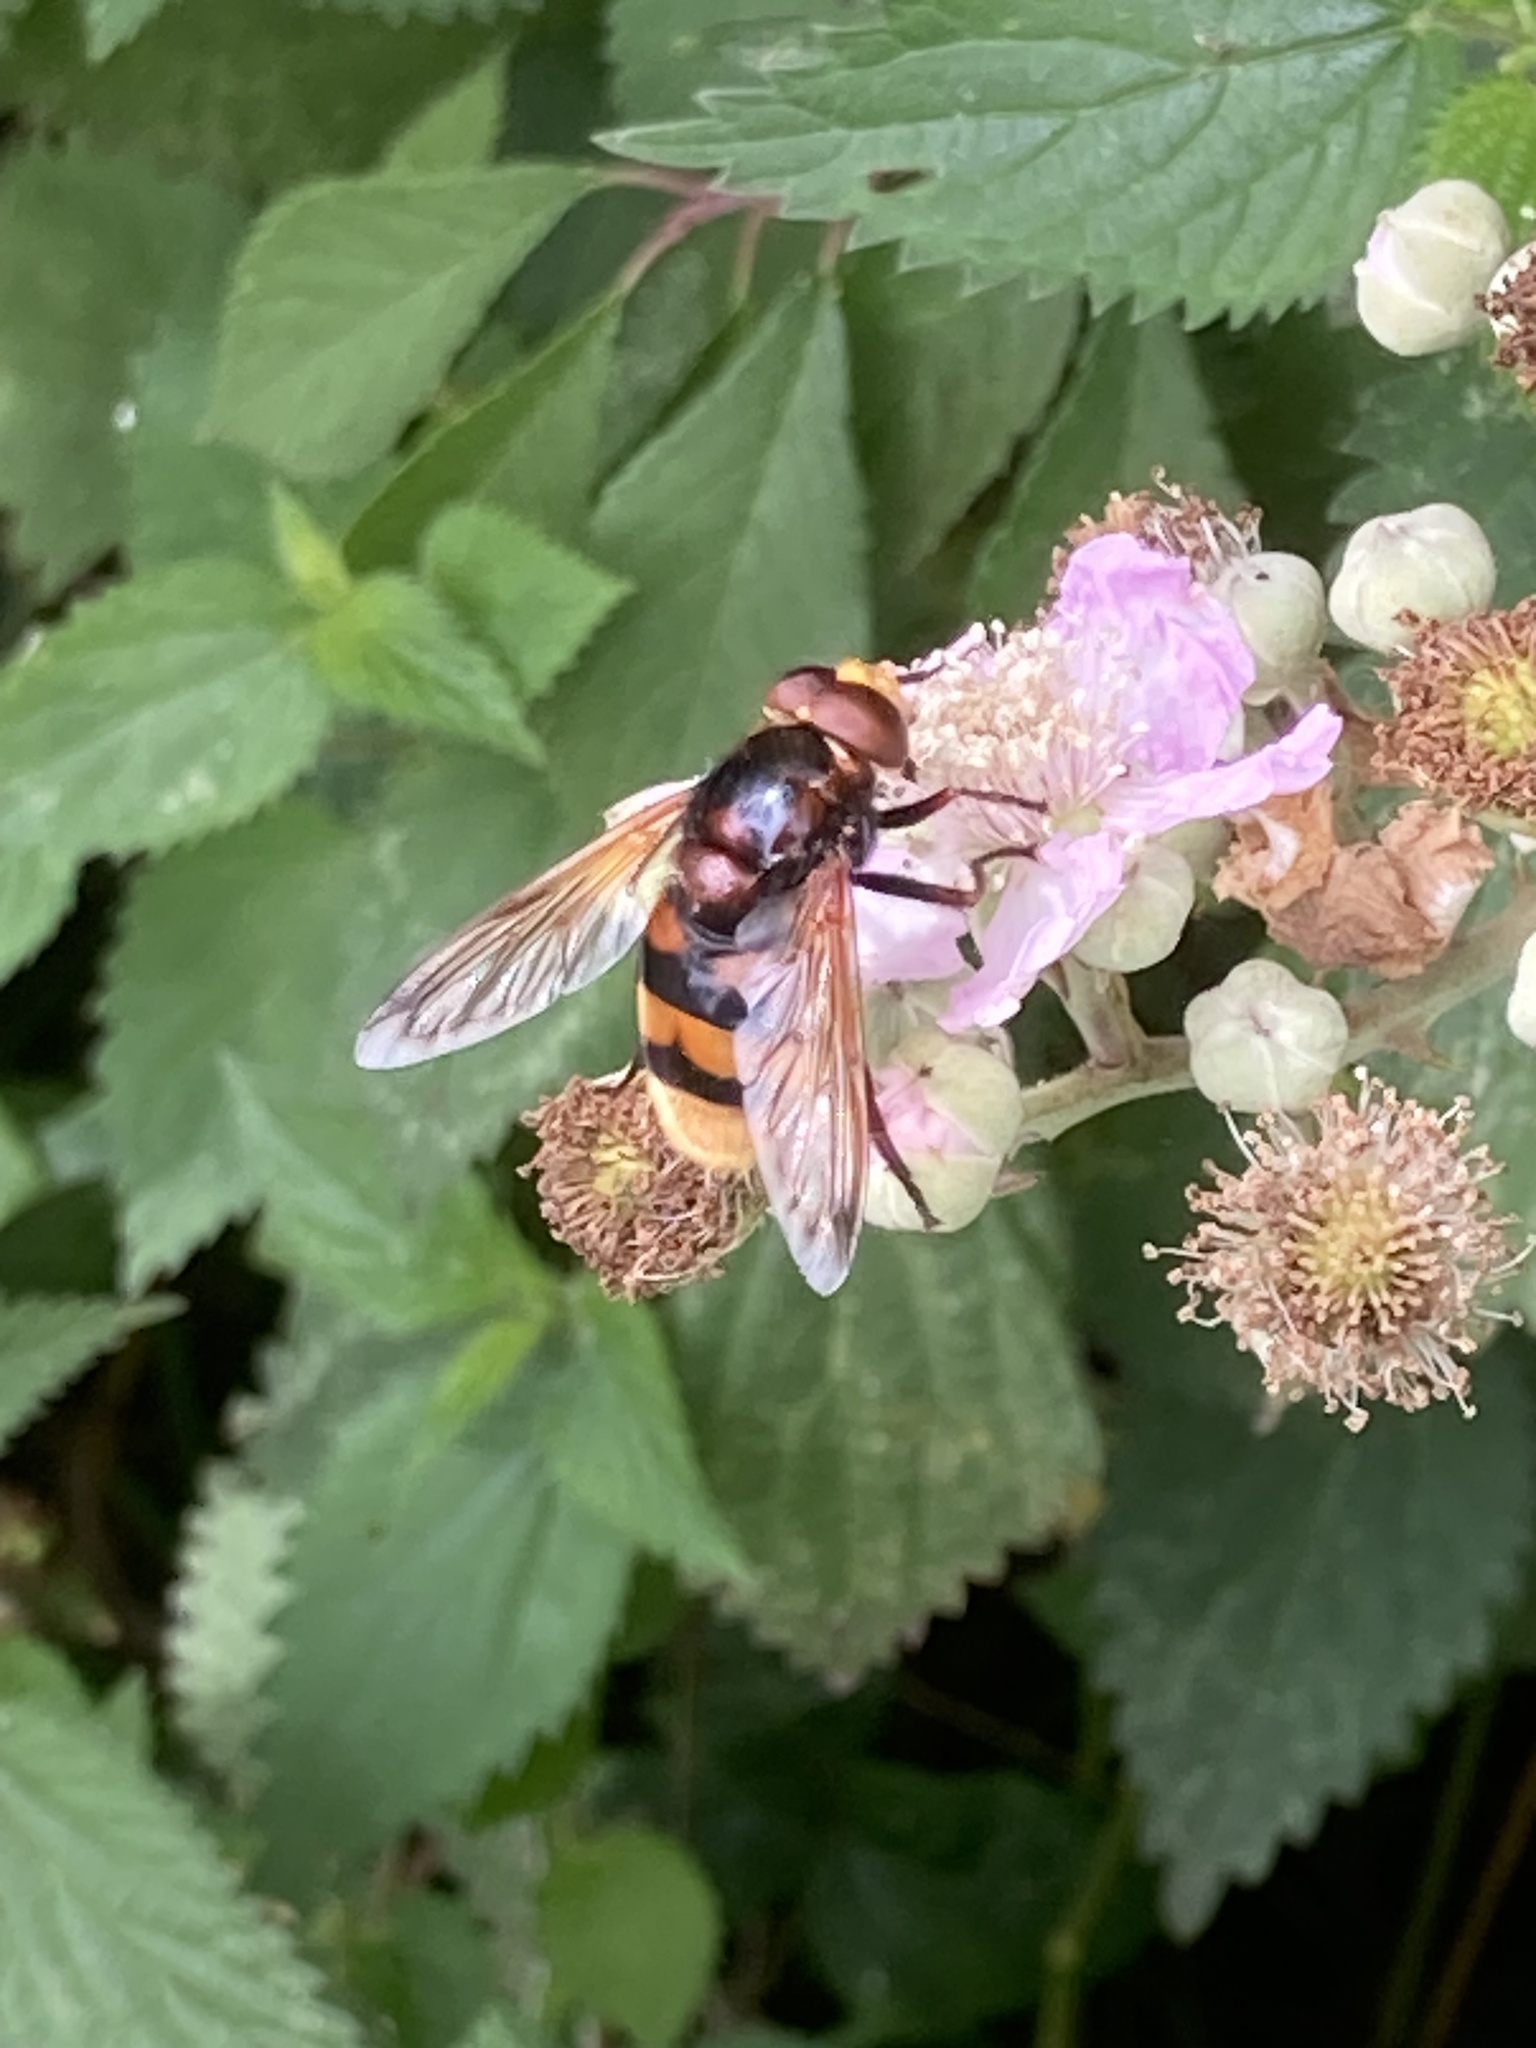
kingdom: Animalia
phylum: Arthropoda
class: Insecta
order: Diptera
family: Syrphidae
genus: Volucella
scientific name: Volucella zonaria
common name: Hornet hoverfly
